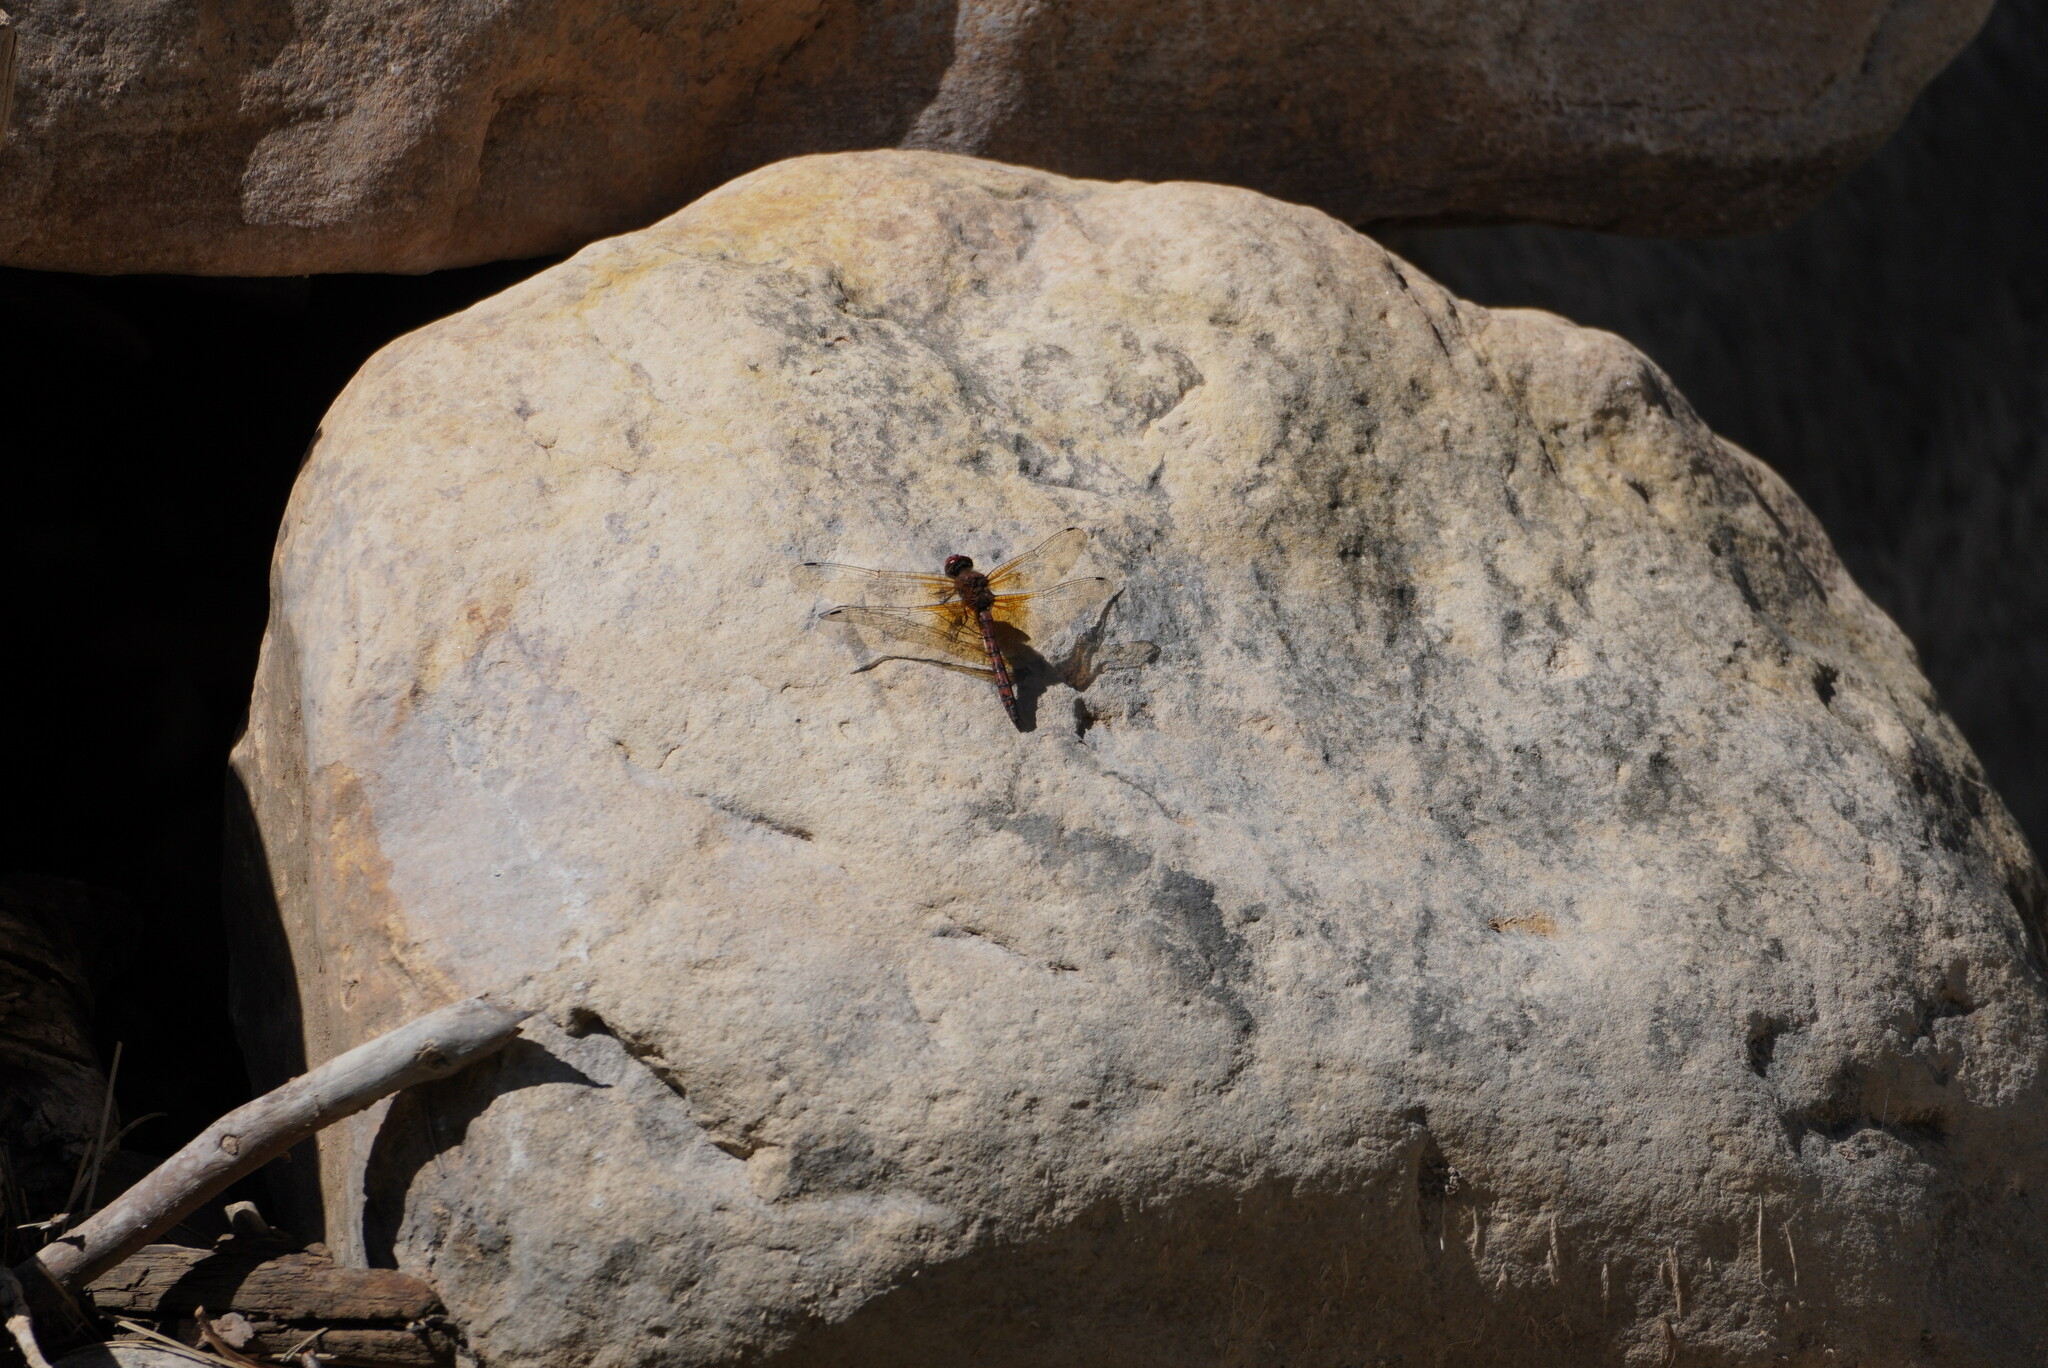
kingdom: Animalia
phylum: Arthropoda
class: Insecta
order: Odonata
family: Libellulidae
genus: Paltothemis
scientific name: Paltothemis lineatipes
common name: Red rock skimmer
